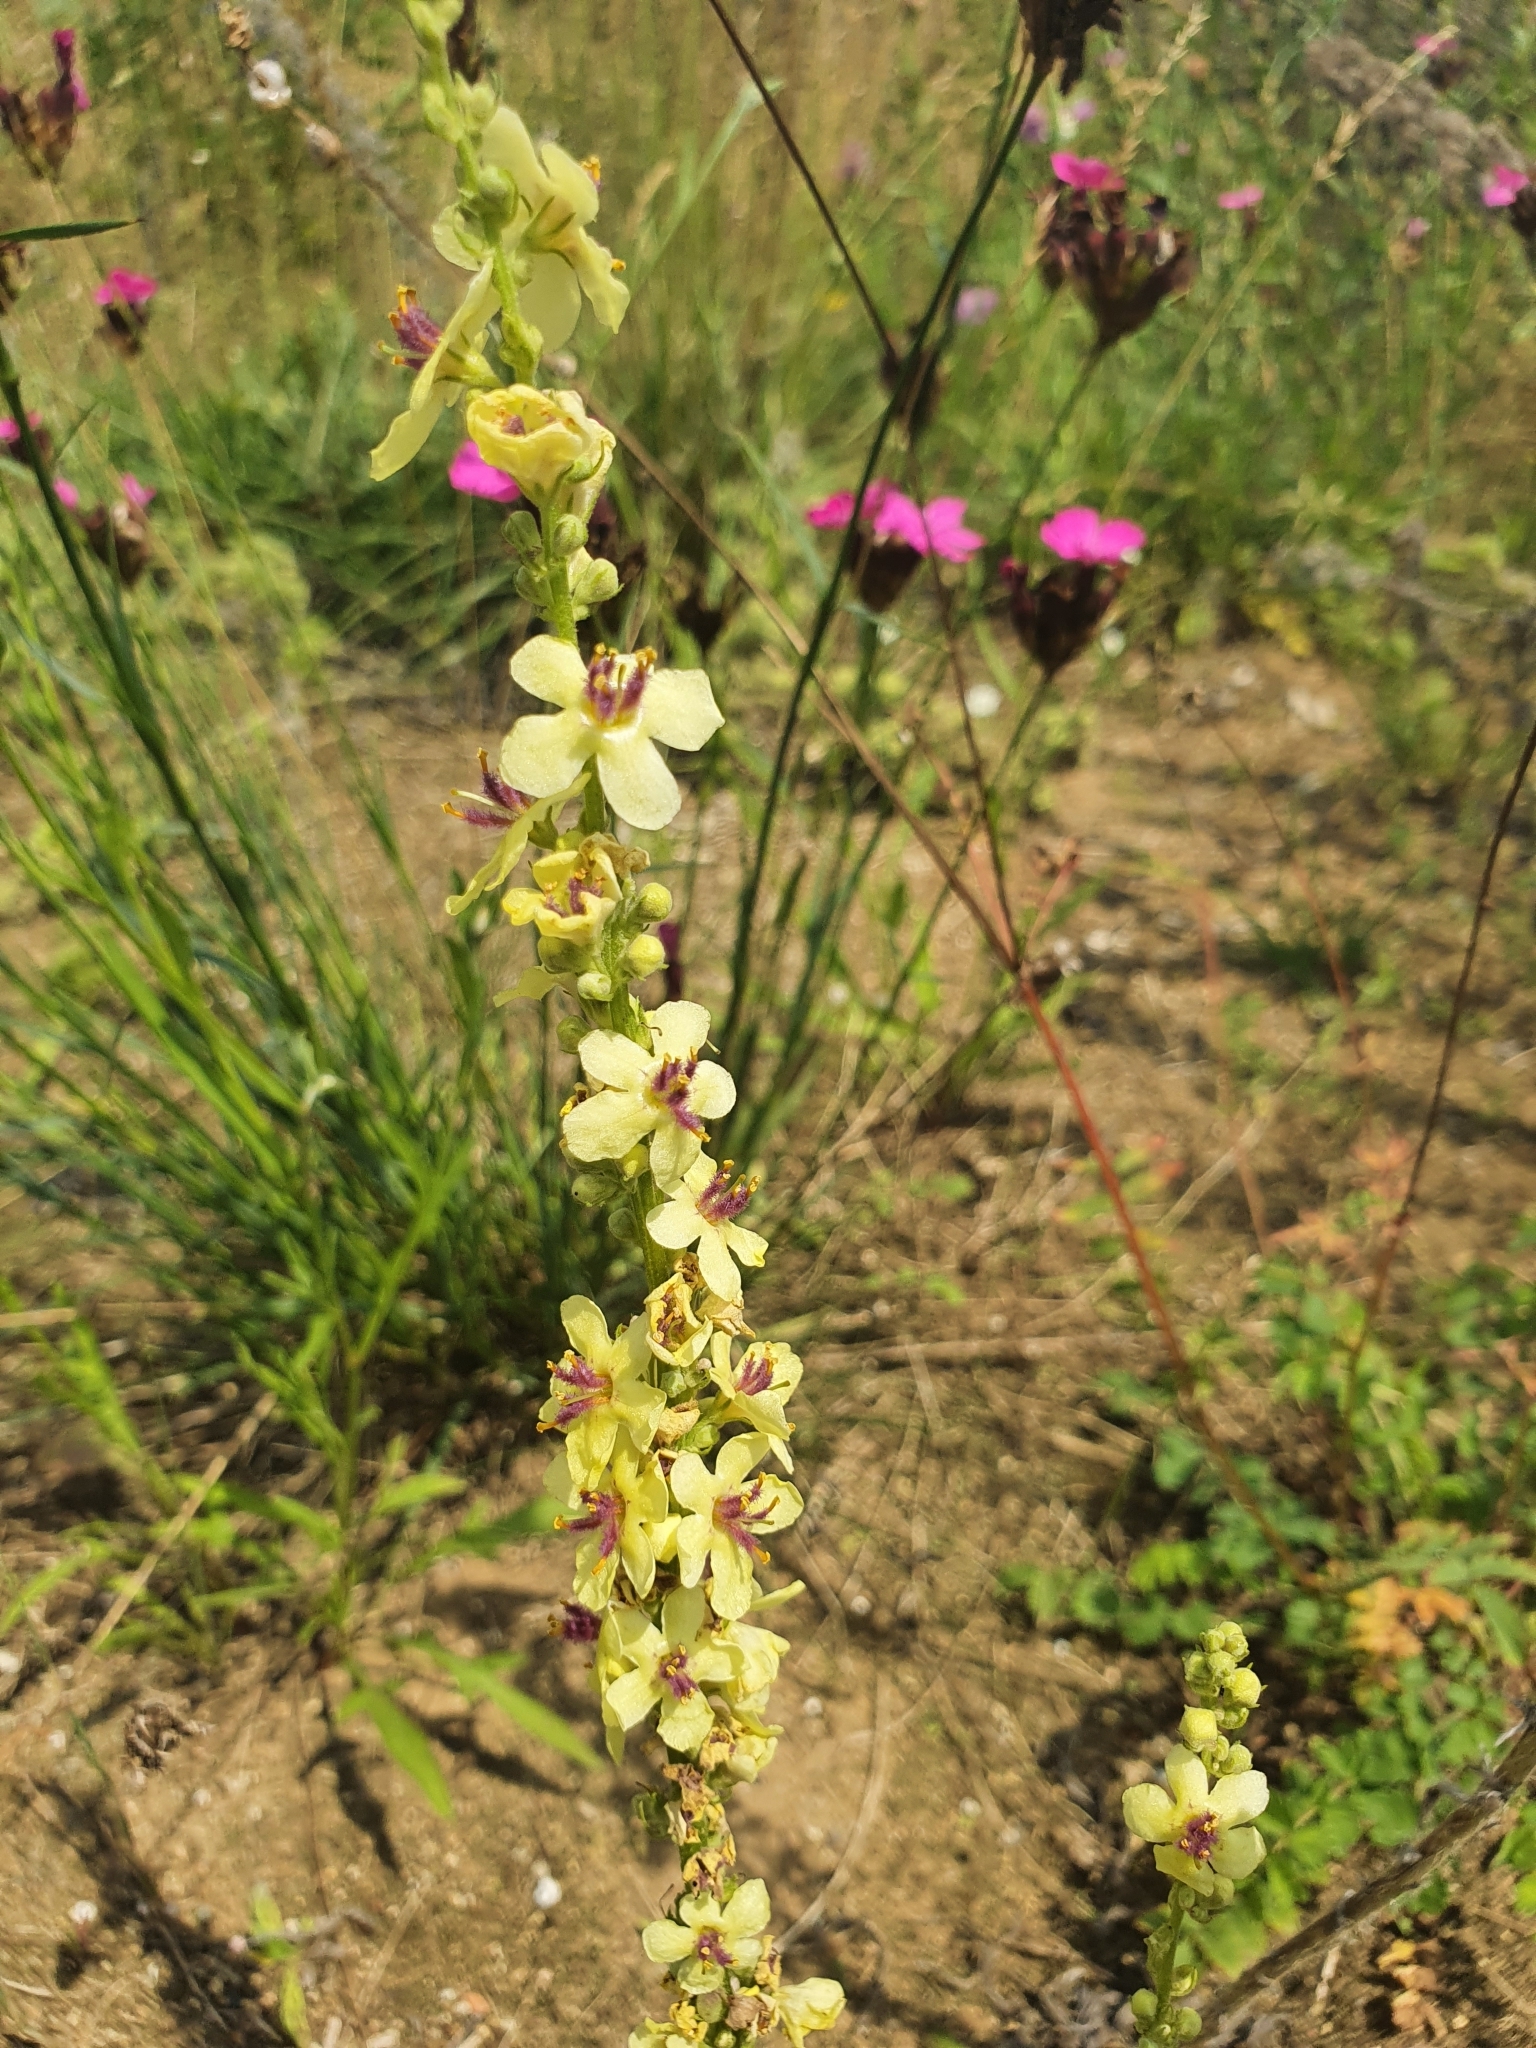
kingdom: Plantae
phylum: Tracheophyta
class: Magnoliopsida
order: Lamiales
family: Scrophulariaceae
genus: Verbascum
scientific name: Verbascum nigrum
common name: Dark mullein
